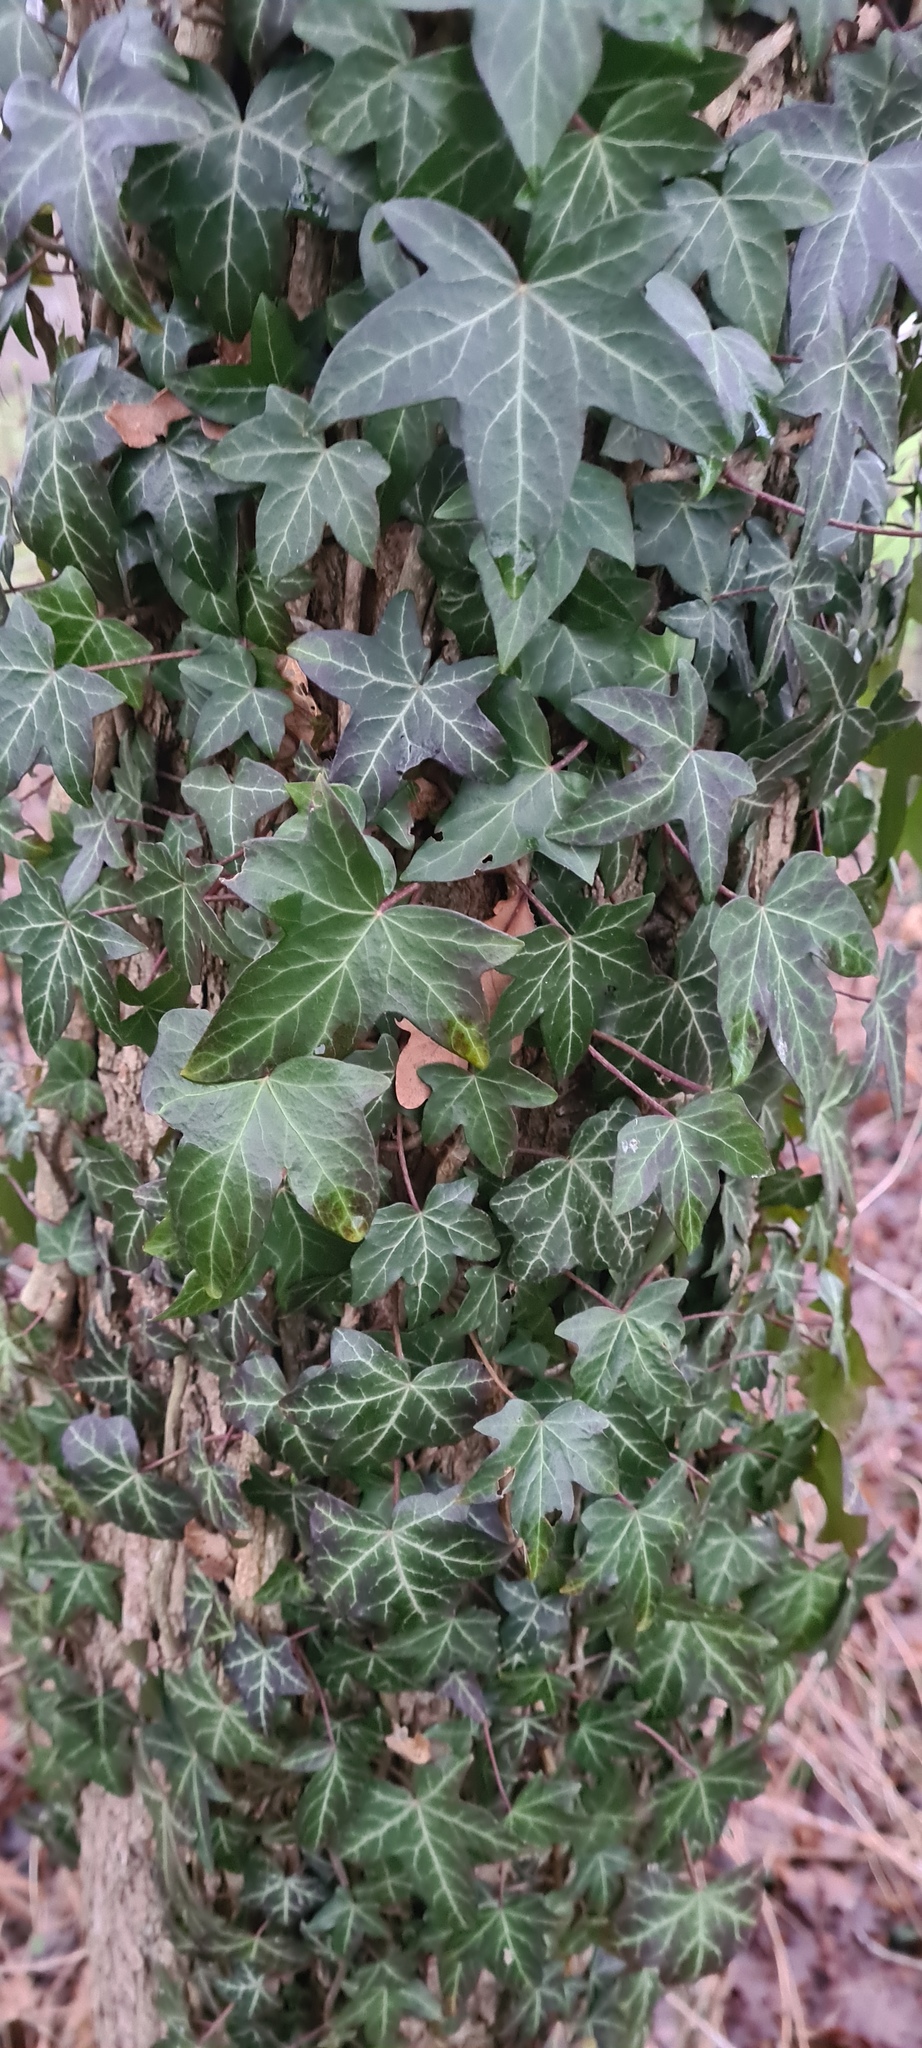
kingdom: Plantae
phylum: Tracheophyta
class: Magnoliopsida
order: Apiales
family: Araliaceae
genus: Hedera
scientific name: Hedera helix
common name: Ivy
